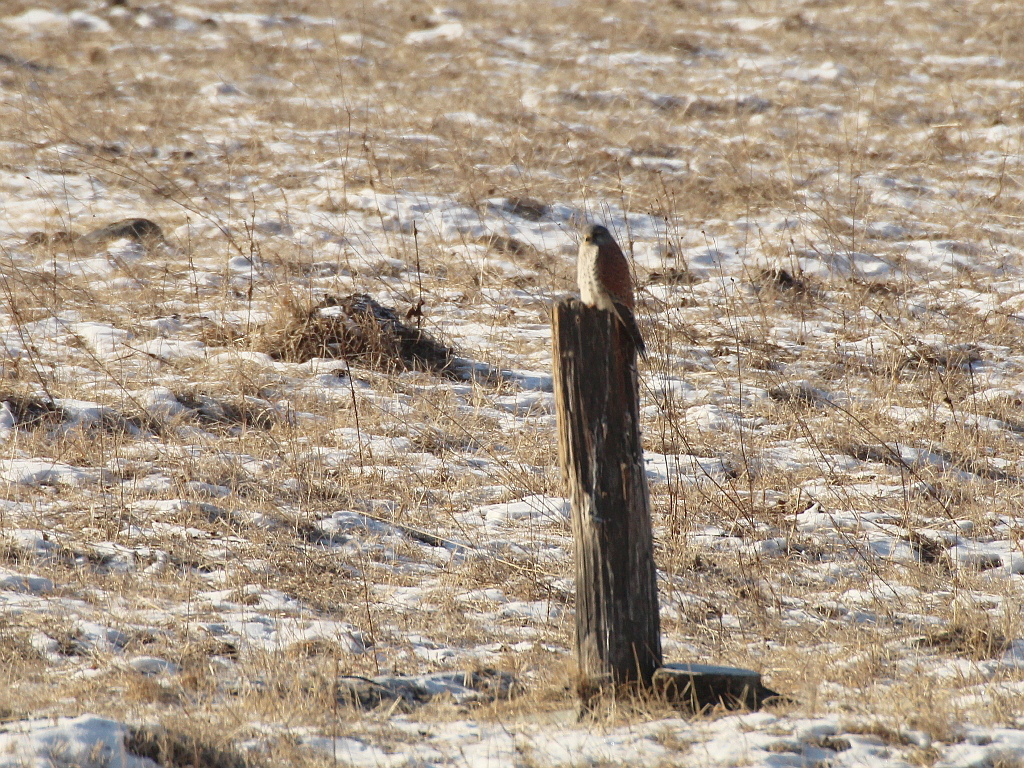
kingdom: Animalia
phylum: Chordata
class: Aves
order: Falconiformes
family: Falconidae
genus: Falco
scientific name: Falco tinnunculus
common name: Common kestrel
